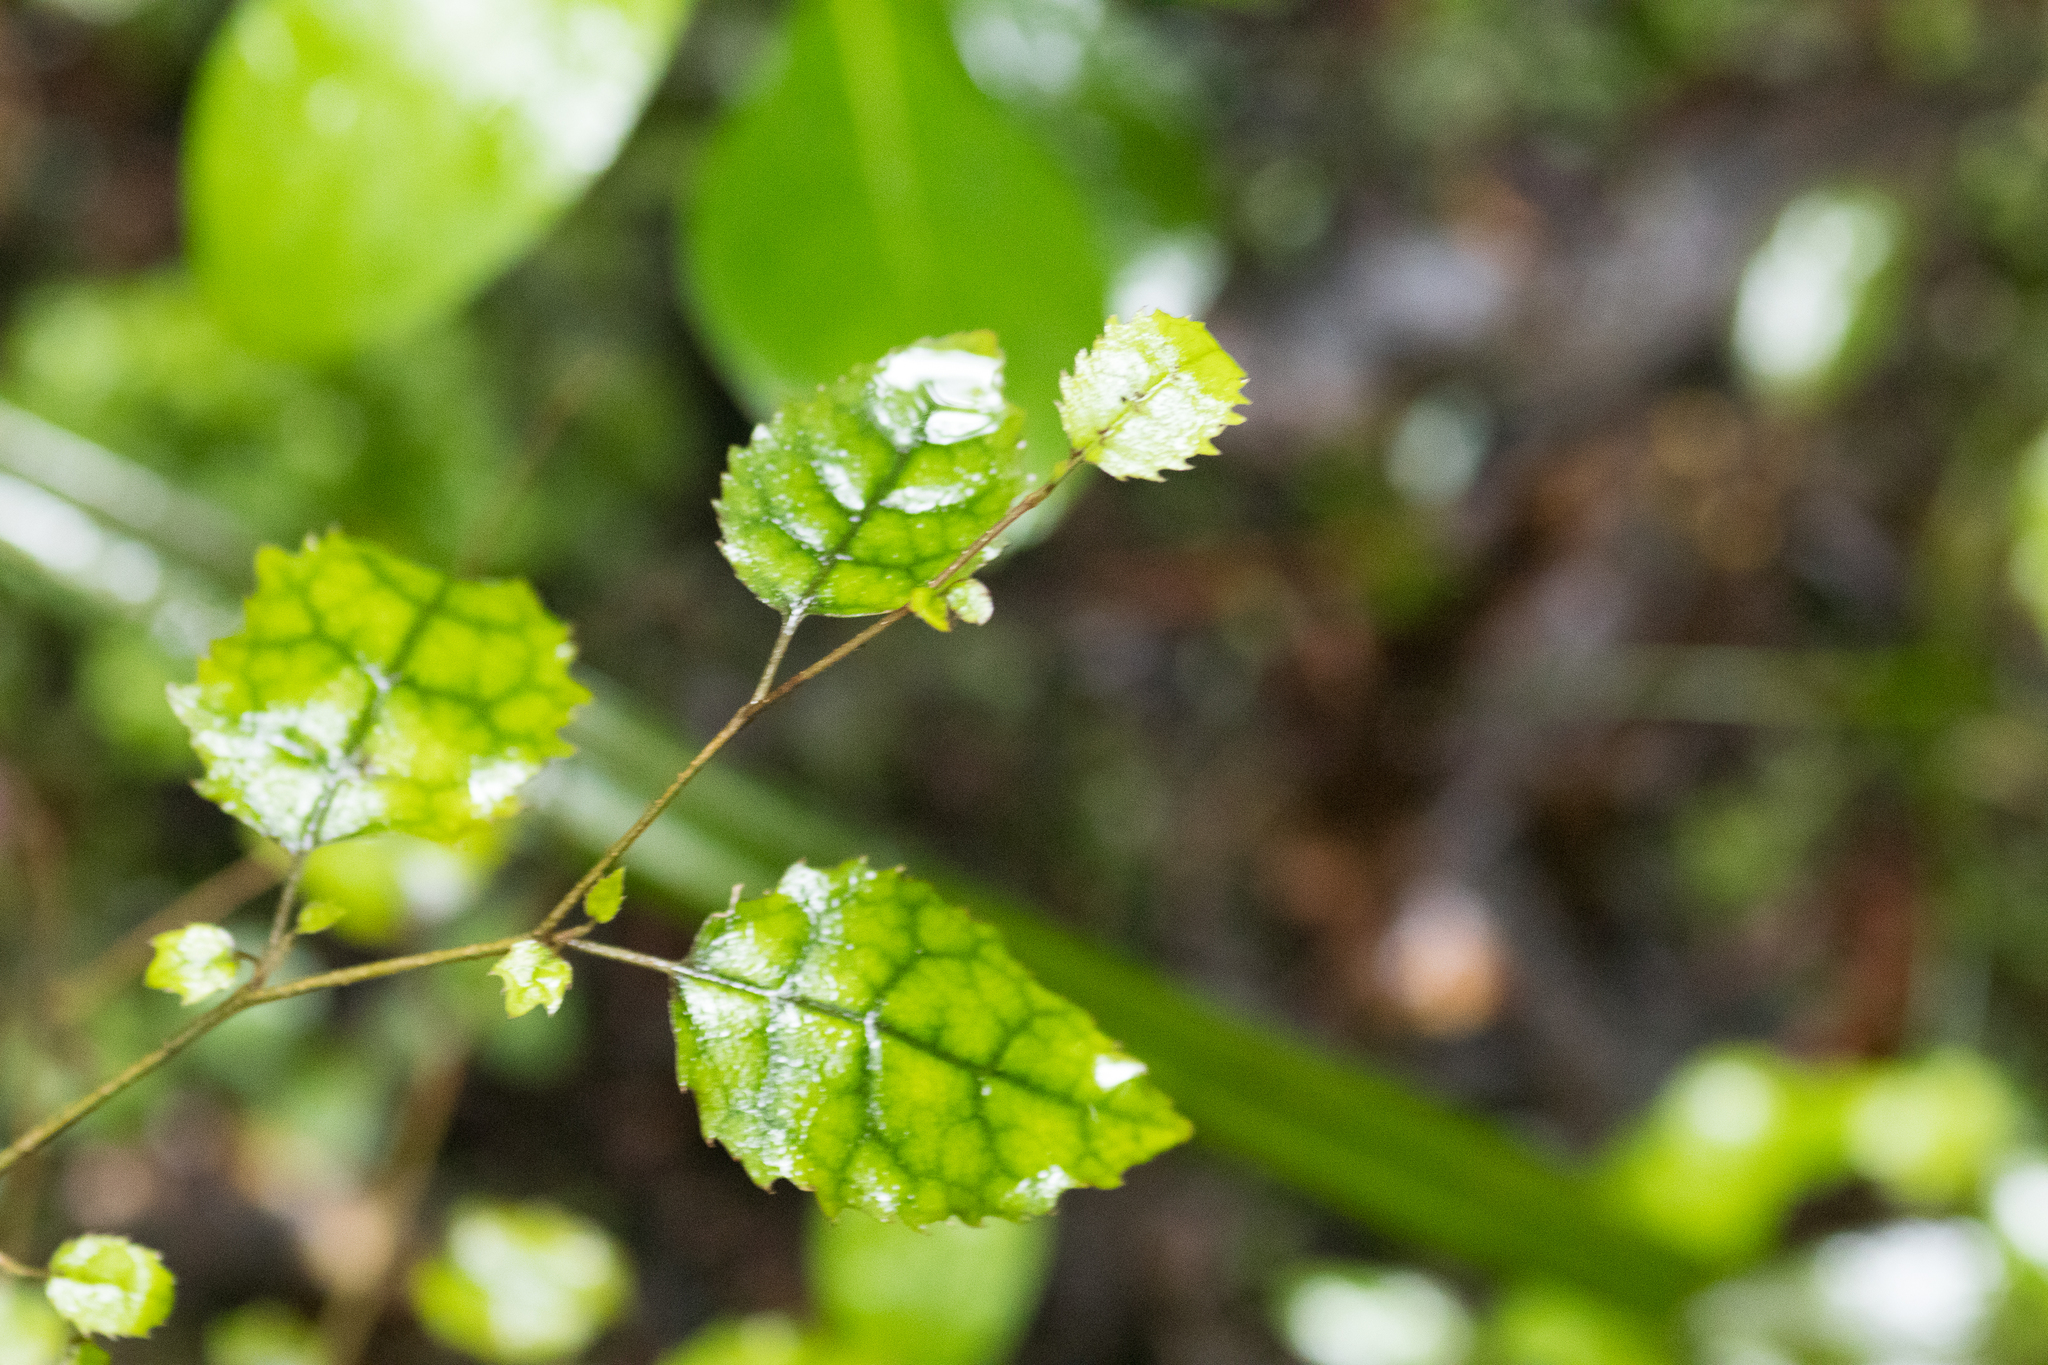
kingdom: Plantae
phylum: Tracheophyta
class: Magnoliopsida
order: Asterales
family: Rousseaceae
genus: Carpodetus
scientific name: Carpodetus serratus
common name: White mapau
